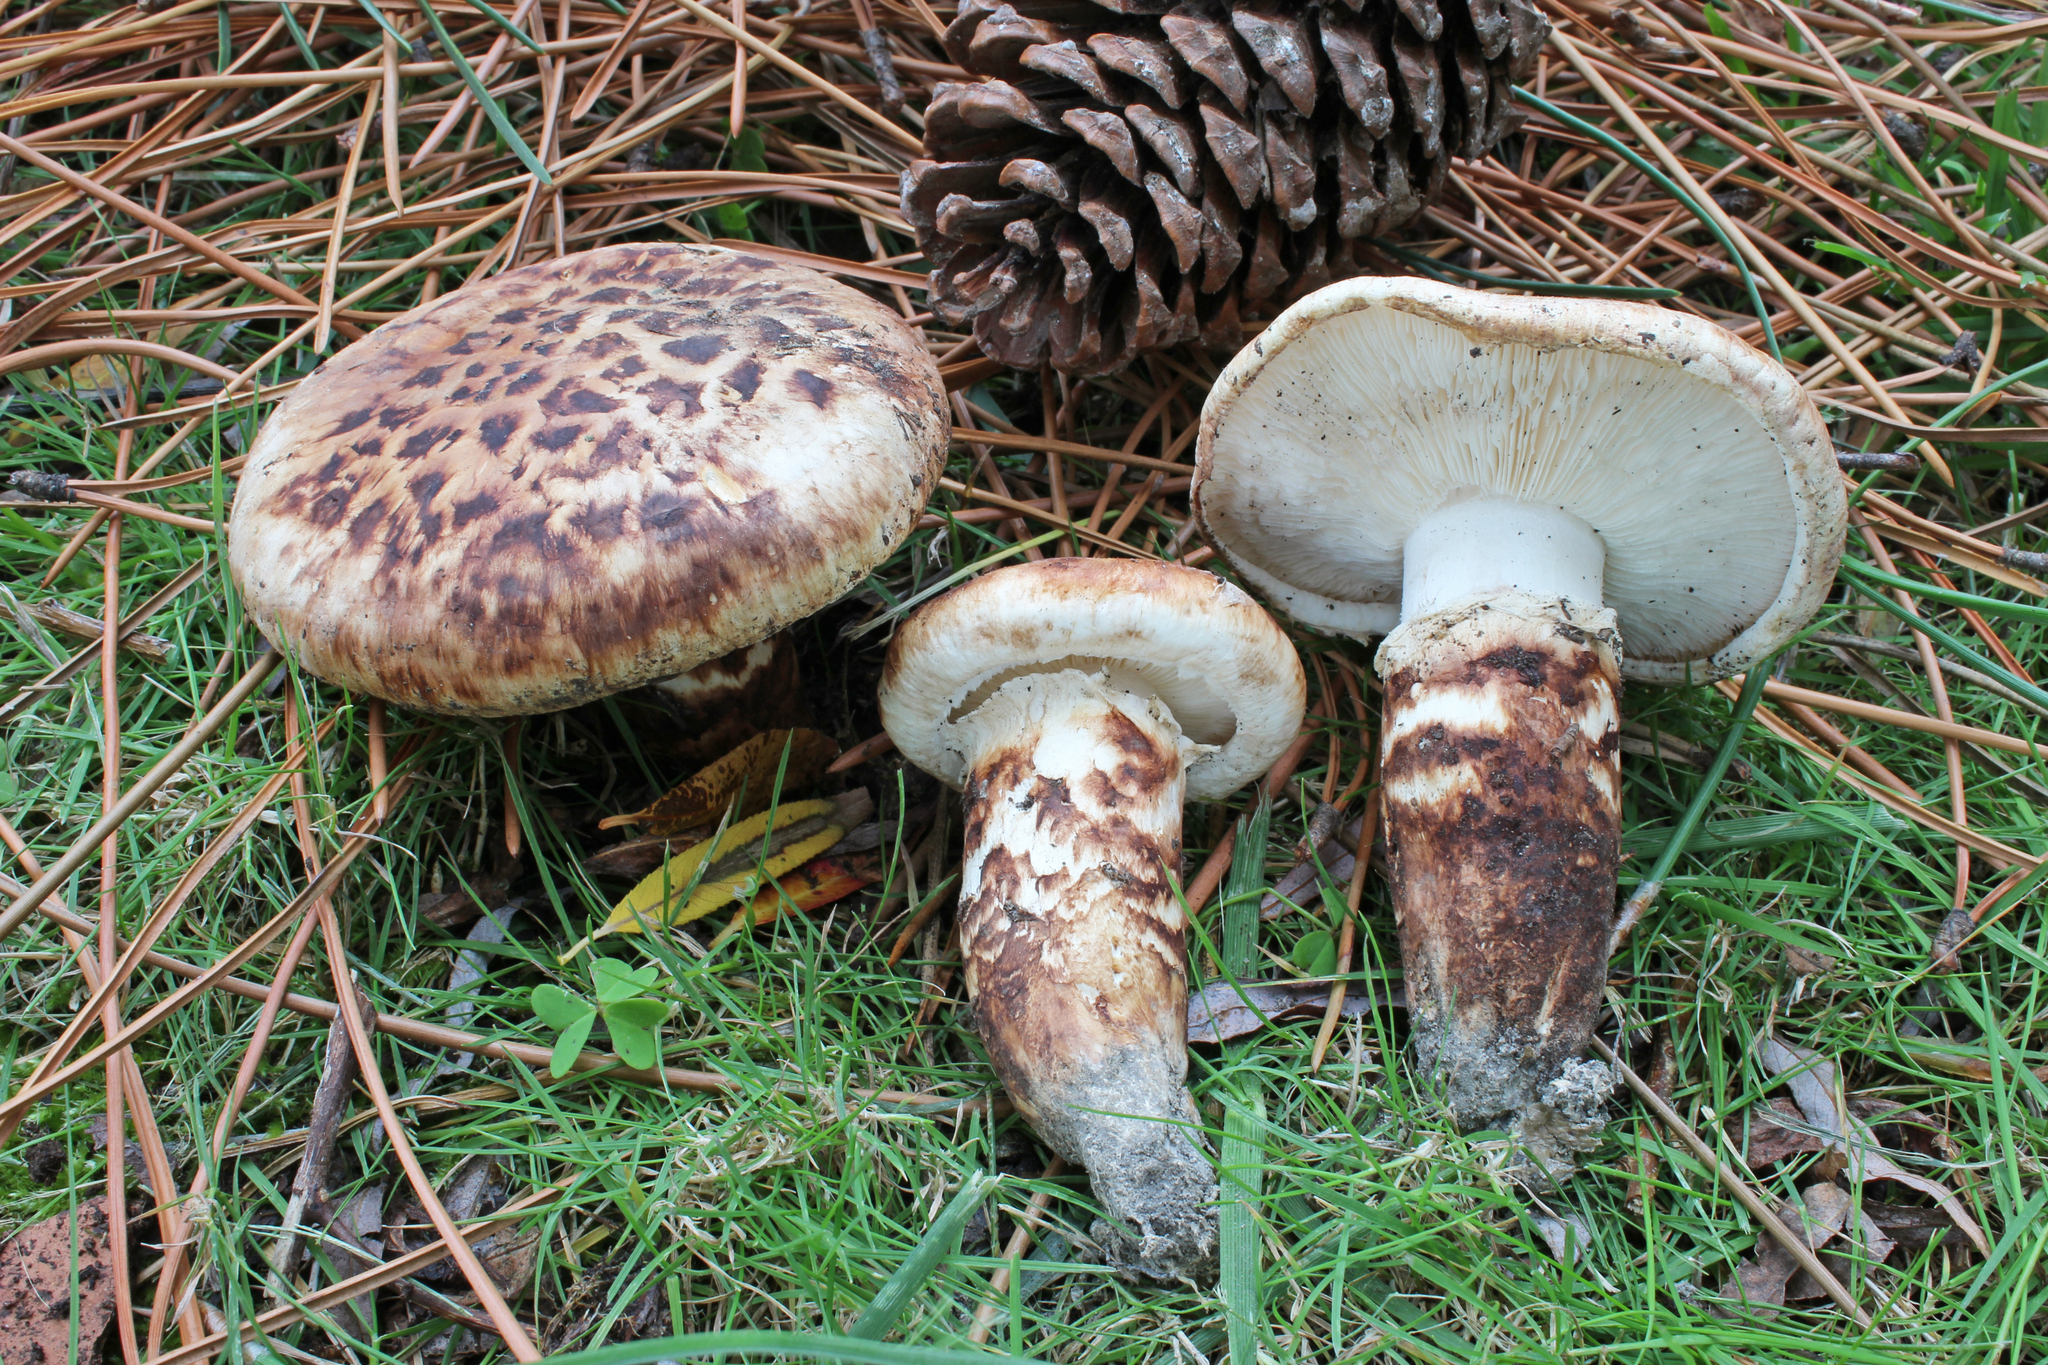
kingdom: Fungi
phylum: Basidiomycota
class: Agaricomycetes
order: Agaricales
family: Tricholomataceae
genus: Tricholoma
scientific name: Tricholoma caligatum
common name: True booted knight
